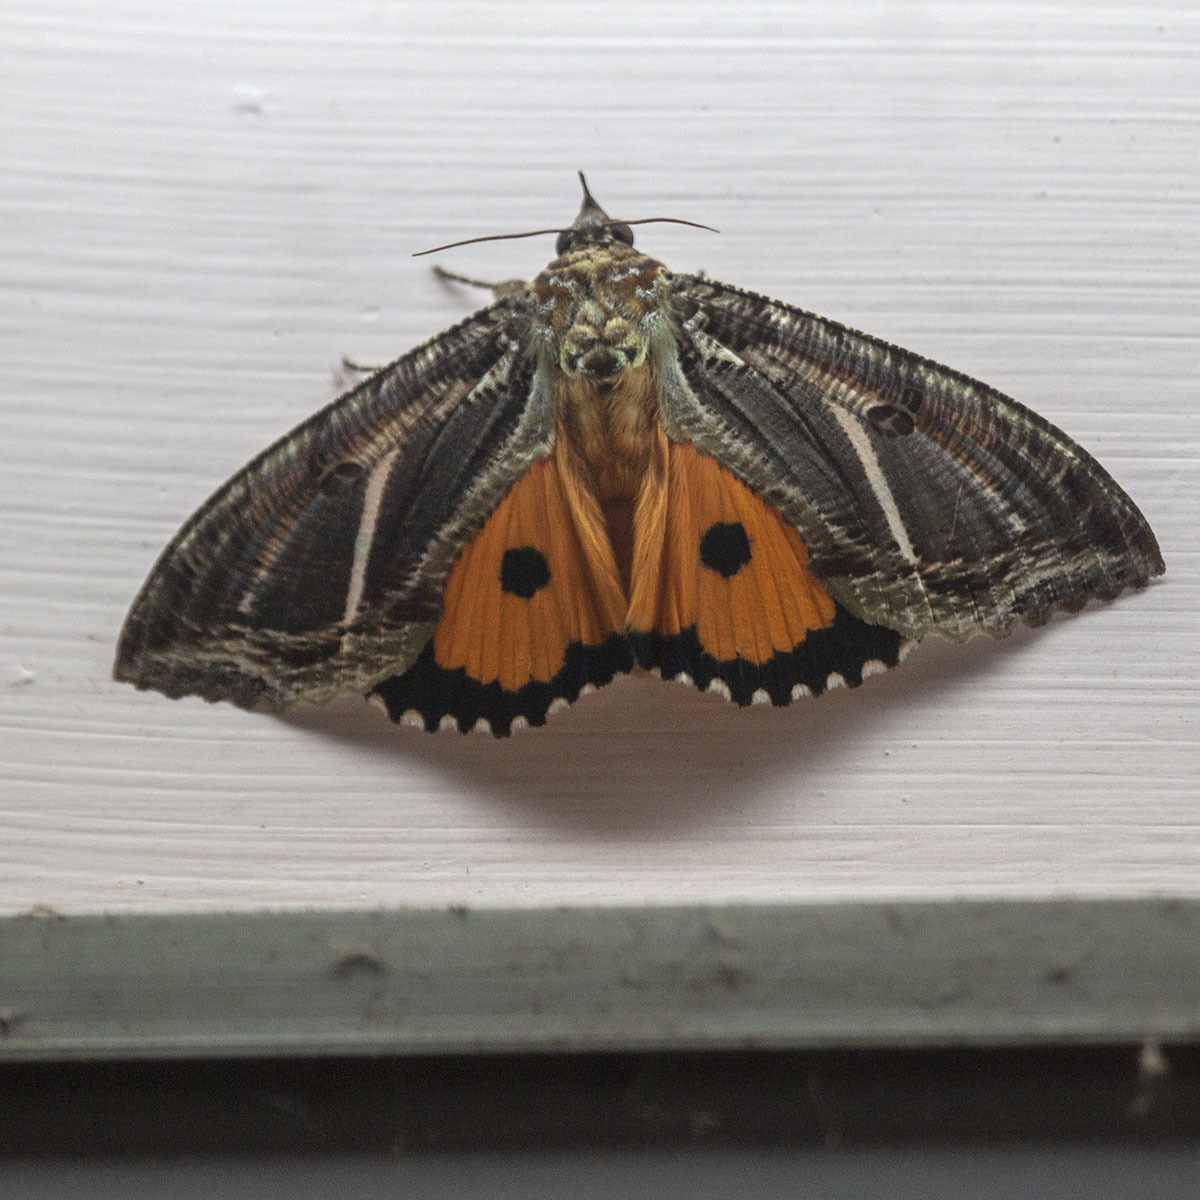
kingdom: Animalia
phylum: Arthropoda
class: Insecta
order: Lepidoptera
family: Erebidae
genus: Eudocima
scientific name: Eudocima materna
